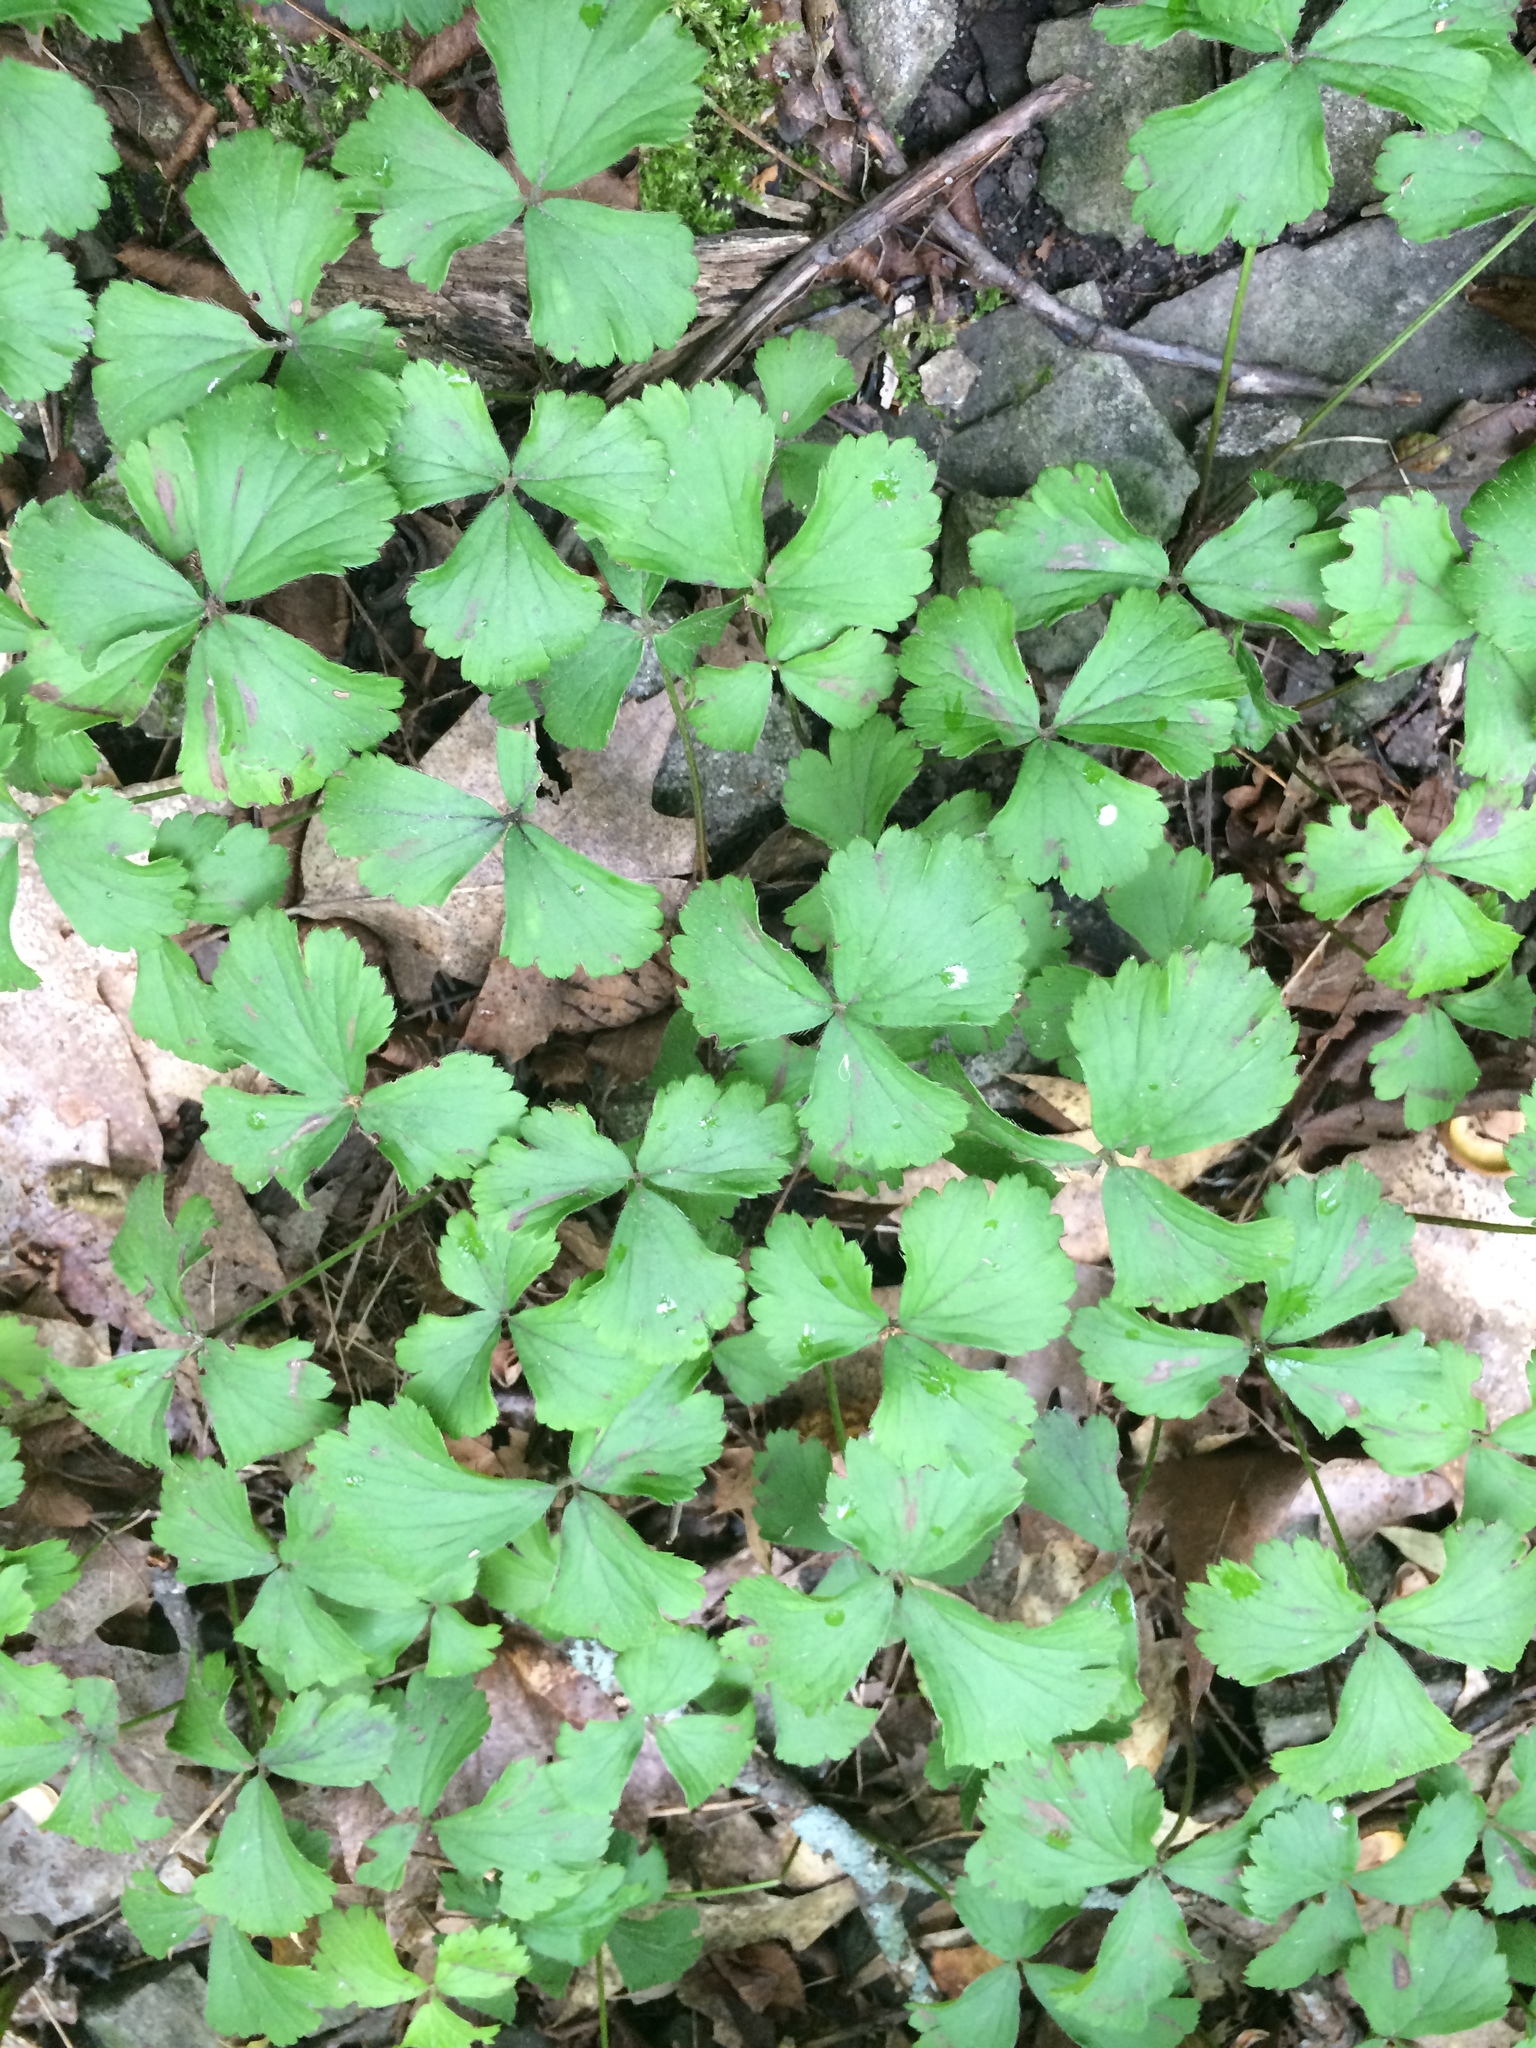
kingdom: Plantae
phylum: Tracheophyta
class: Magnoliopsida
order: Rosales
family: Rosaceae
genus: Geum
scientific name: Geum fragarioides
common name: Appalachian barren strawberry
